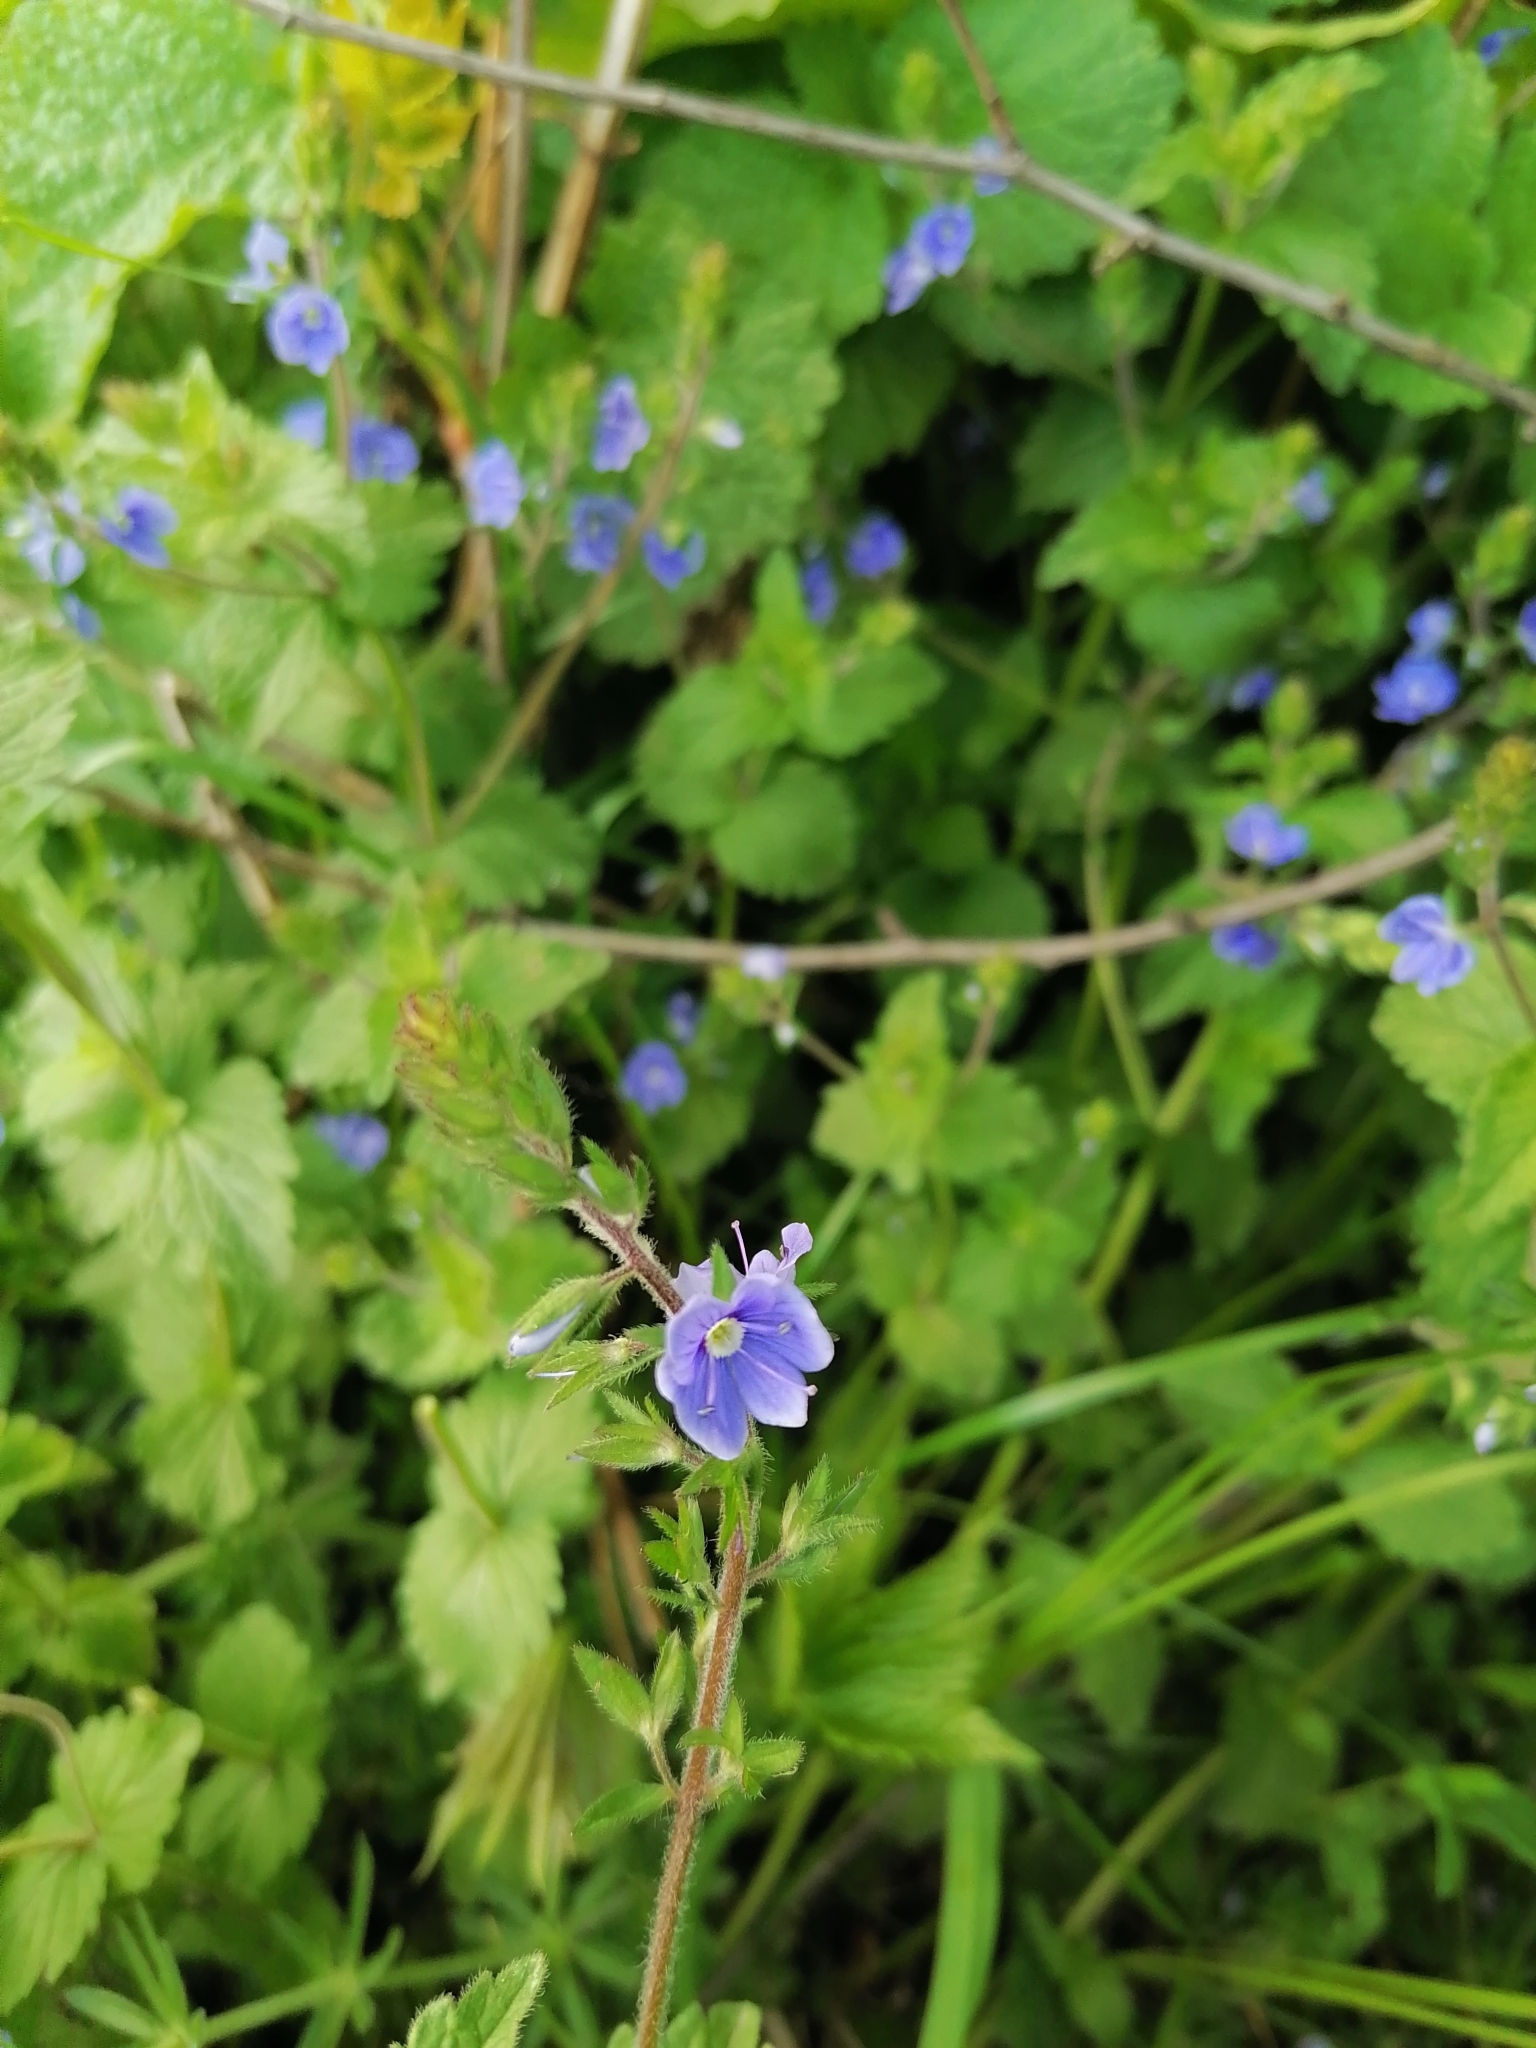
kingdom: Plantae
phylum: Tracheophyta
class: Magnoliopsida
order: Lamiales
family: Plantaginaceae
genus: Veronica
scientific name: Veronica chamaedrys
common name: Germander speedwell
